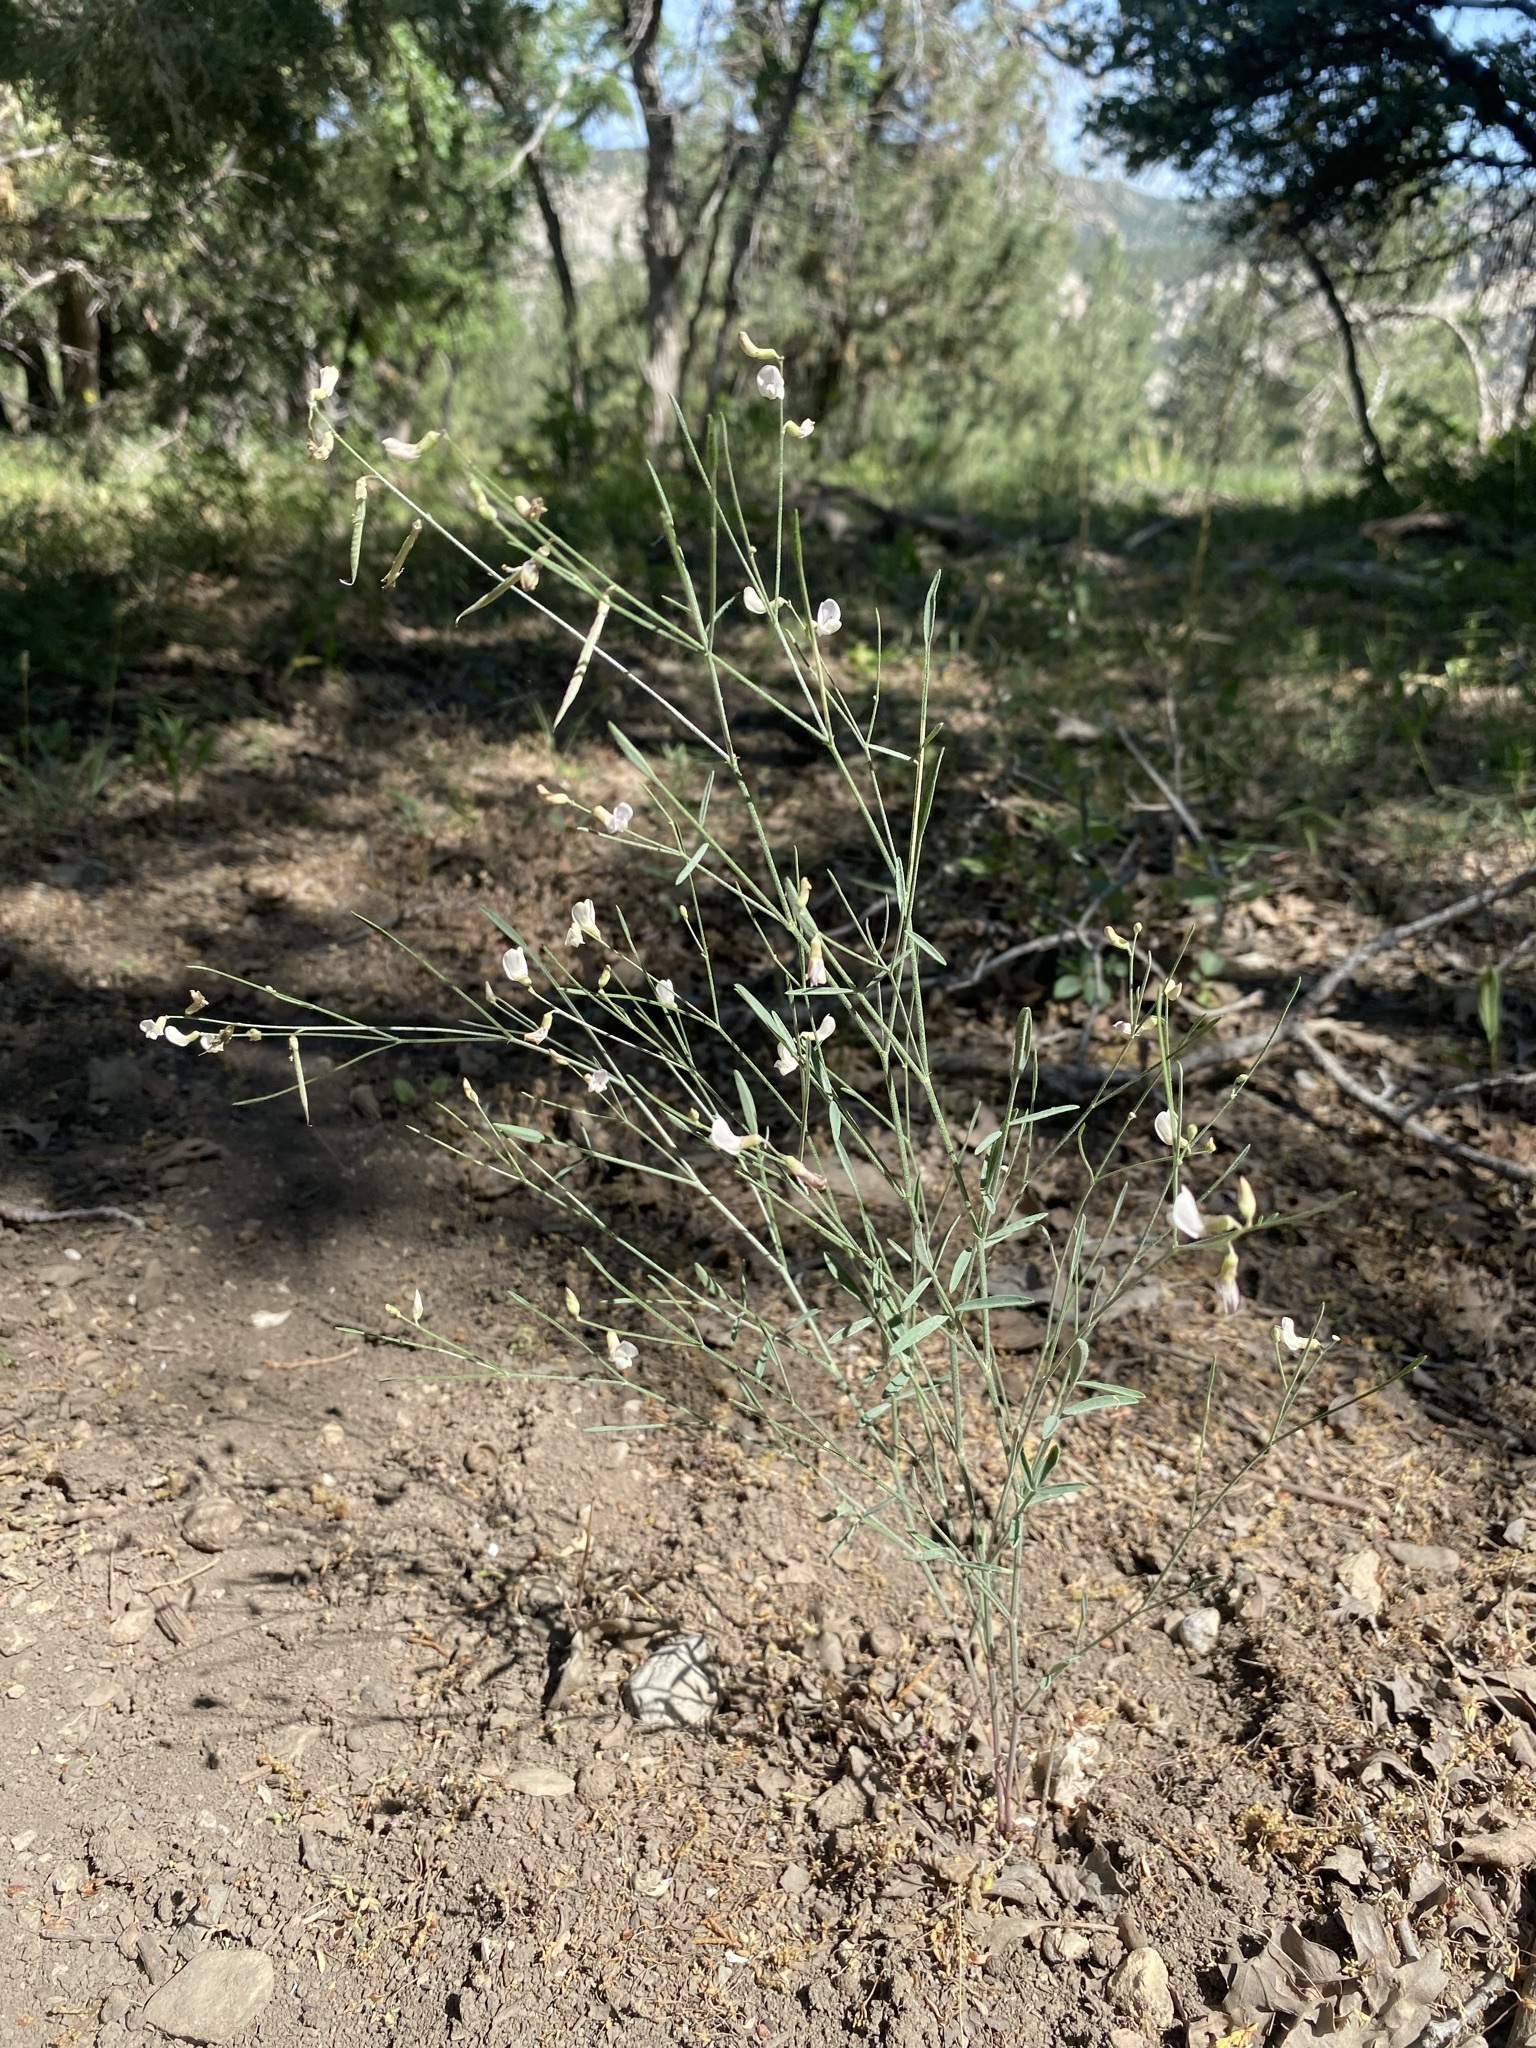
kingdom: Plantae
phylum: Tracheophyta
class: Magnoliopsida
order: Fabales
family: Fabaceae
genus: Astragalus
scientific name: Astragalus convallarius
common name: Lesser rushy milk-vetch
